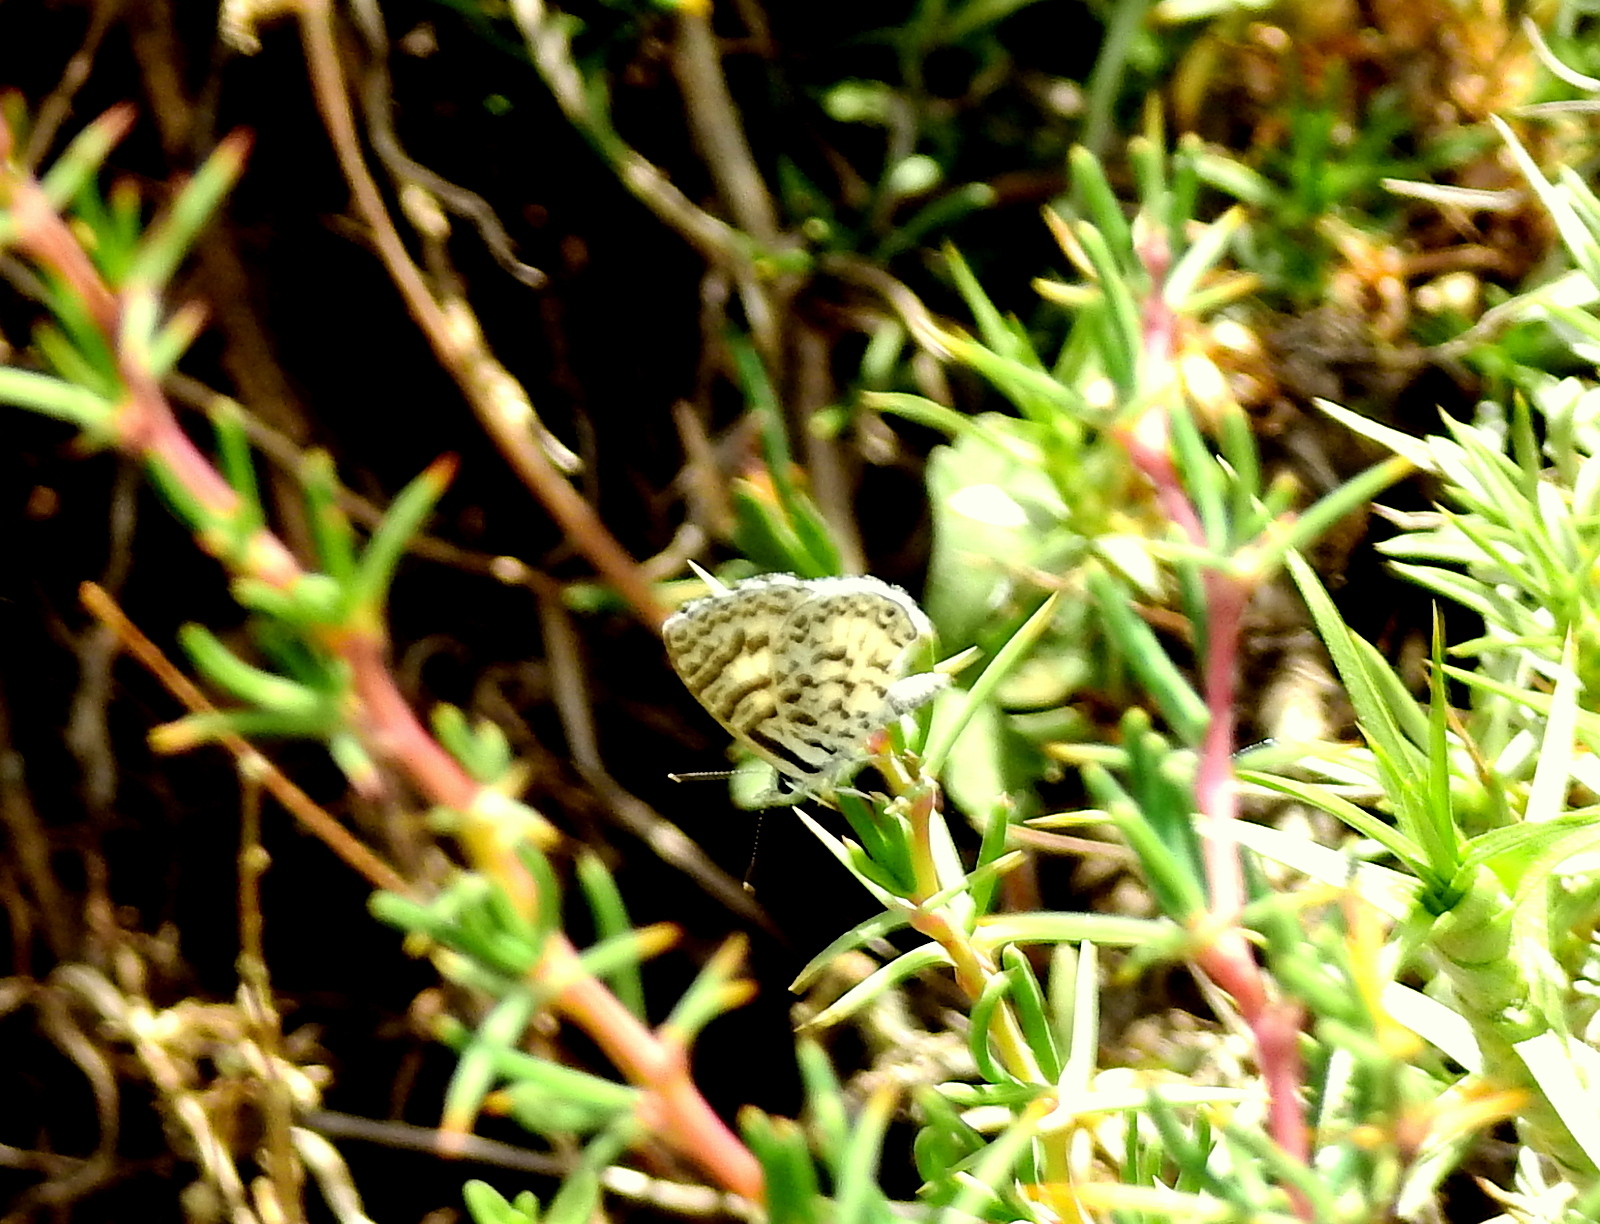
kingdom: Animalia
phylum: Arthropoda
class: Insecta
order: Lepidoptera
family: Lycaenidae
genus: Leptotes
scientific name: Leptotes cassius
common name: Cassius blue
